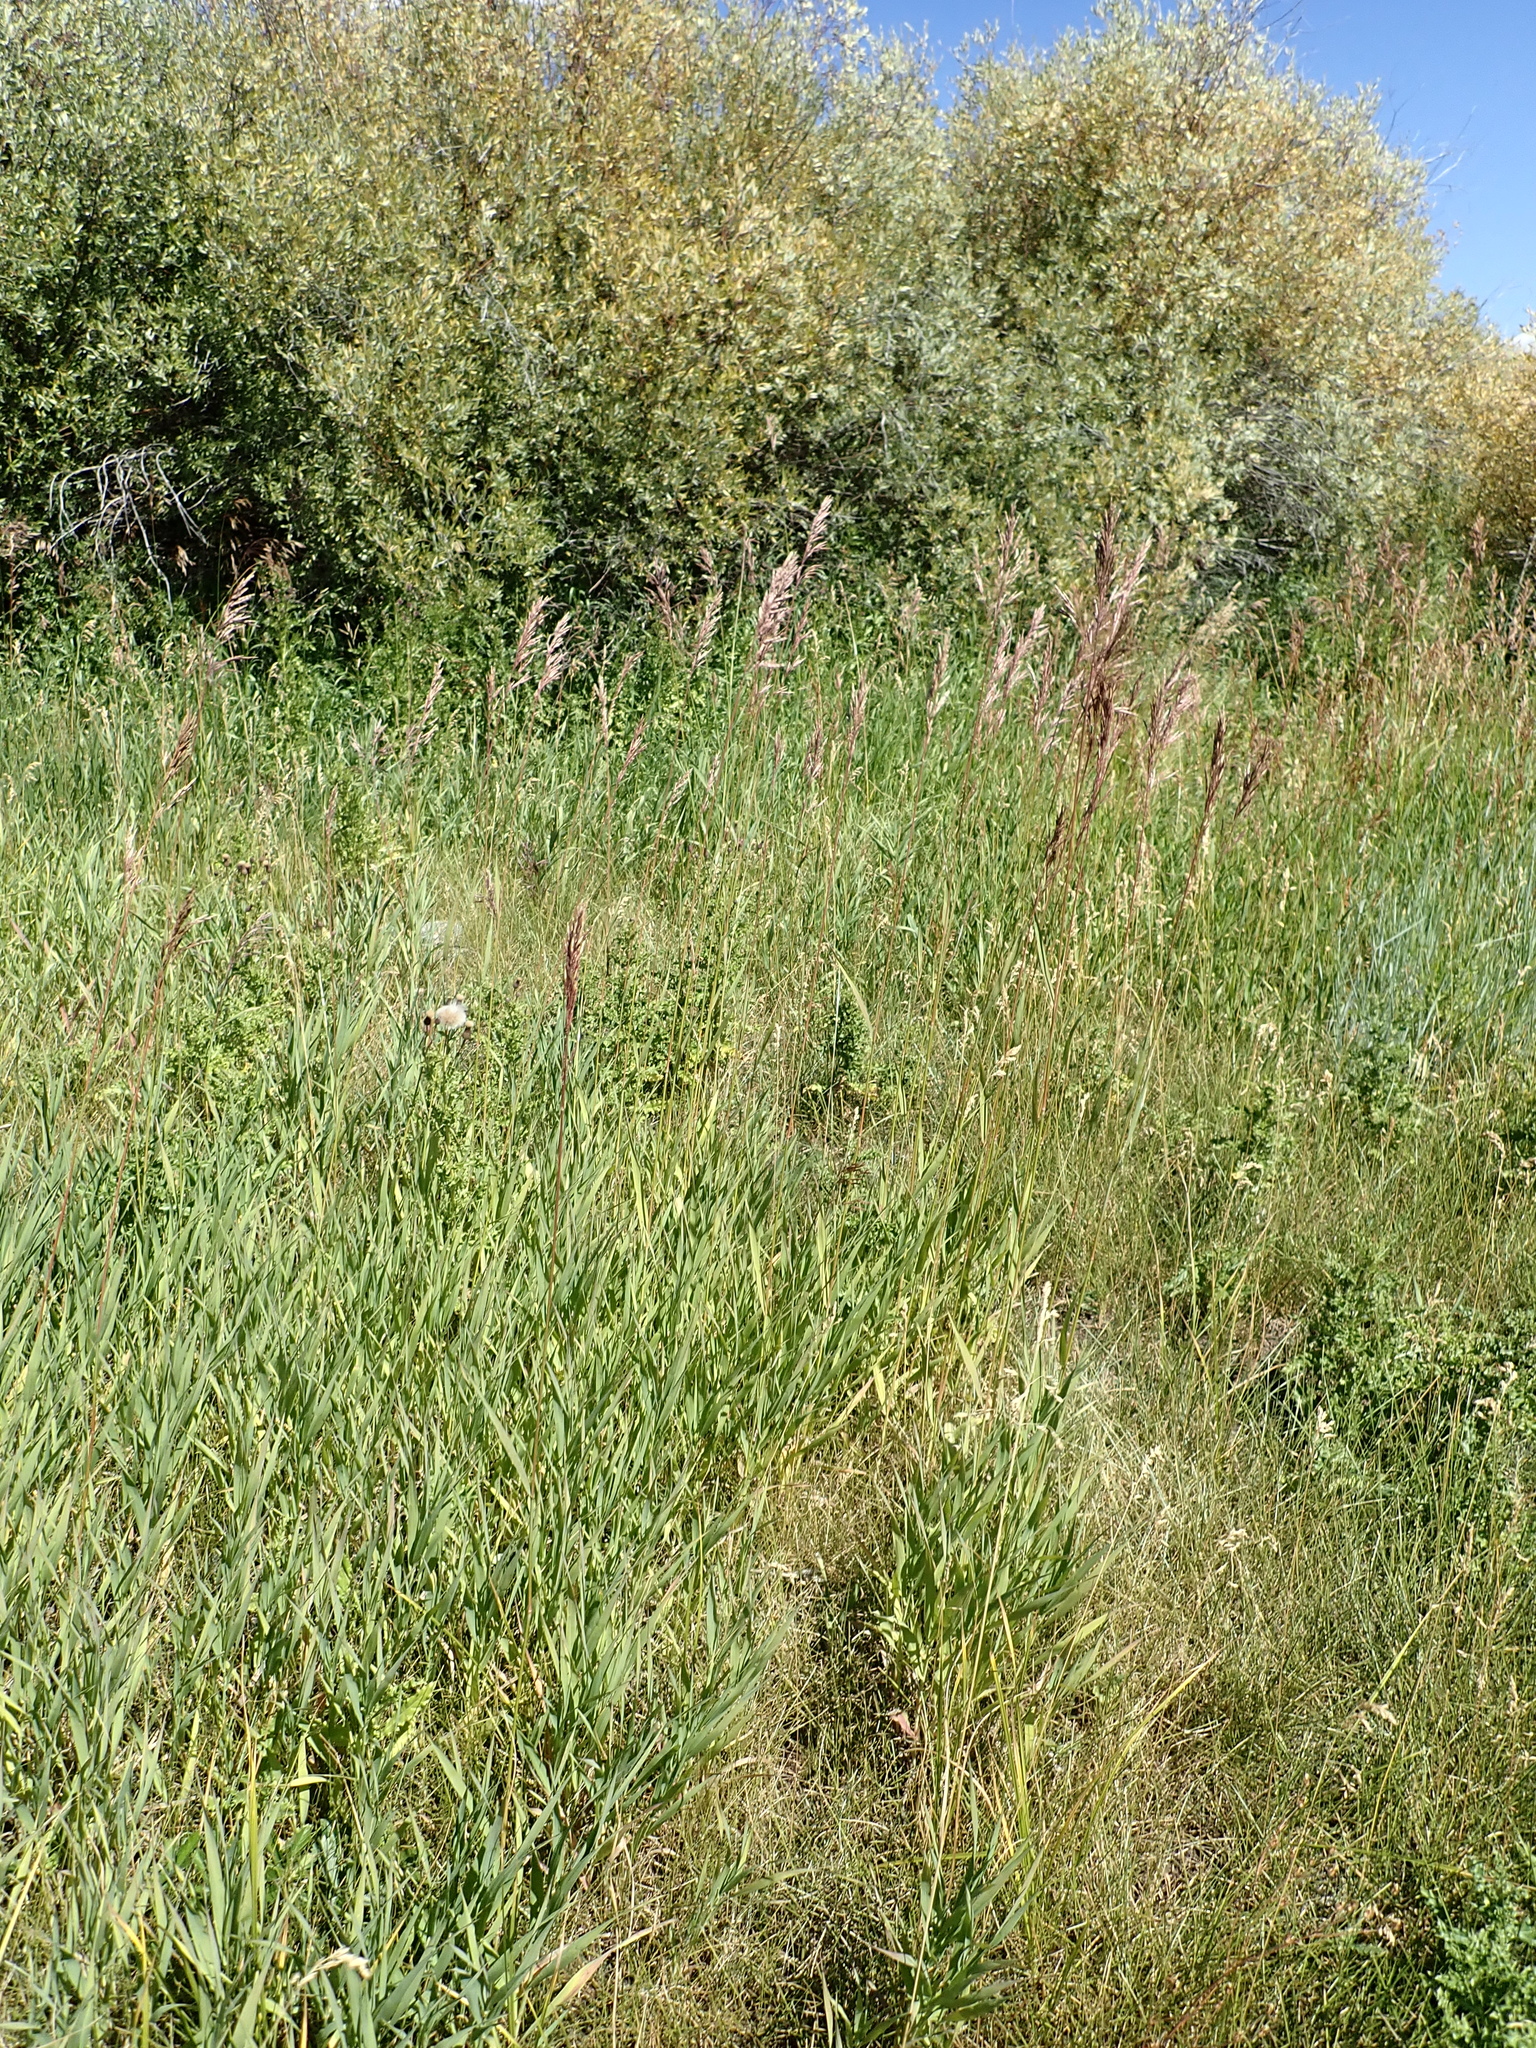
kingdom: Plantae
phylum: Tracheophyta
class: Liliopsida
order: Poales
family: Poaceae
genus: Bromus
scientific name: Bromus inermis
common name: Smooth brome
